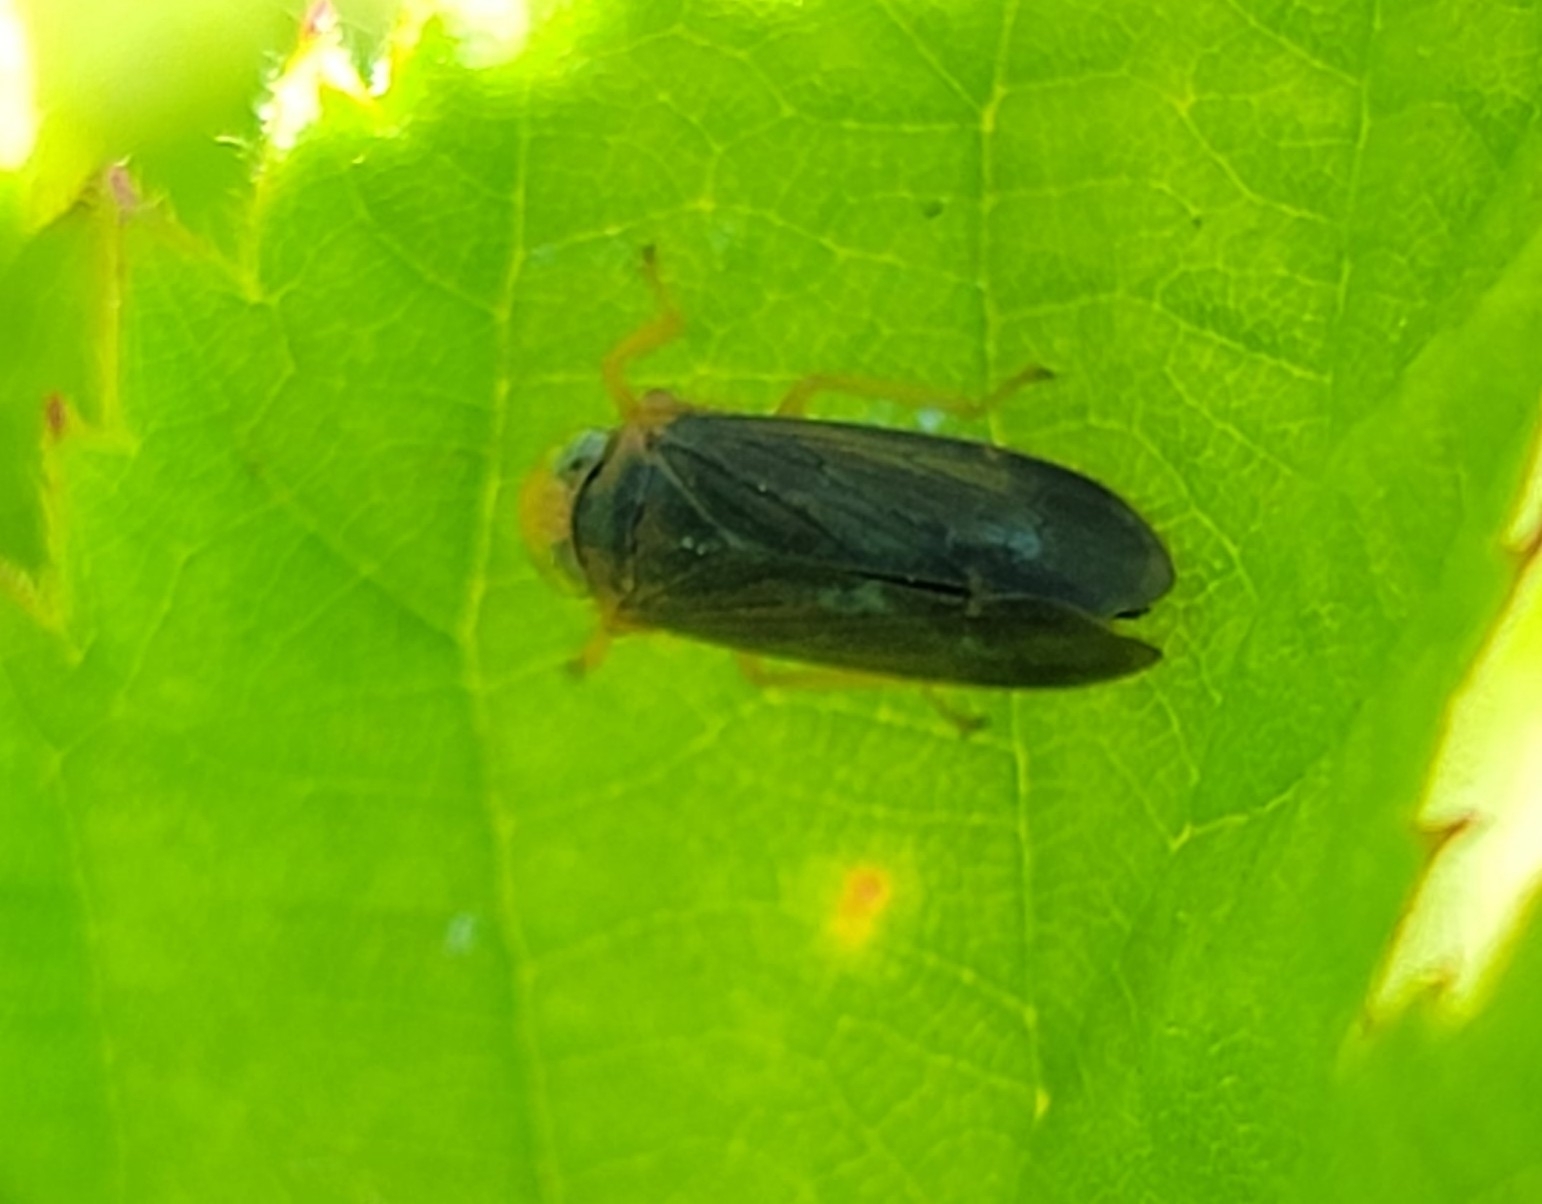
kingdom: Animalia
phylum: Arthropoda
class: Insecta
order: Hemiptera
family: Cicadellidae
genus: Jikradia
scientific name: Jikradia olitoria
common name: Coppery leafhopper
